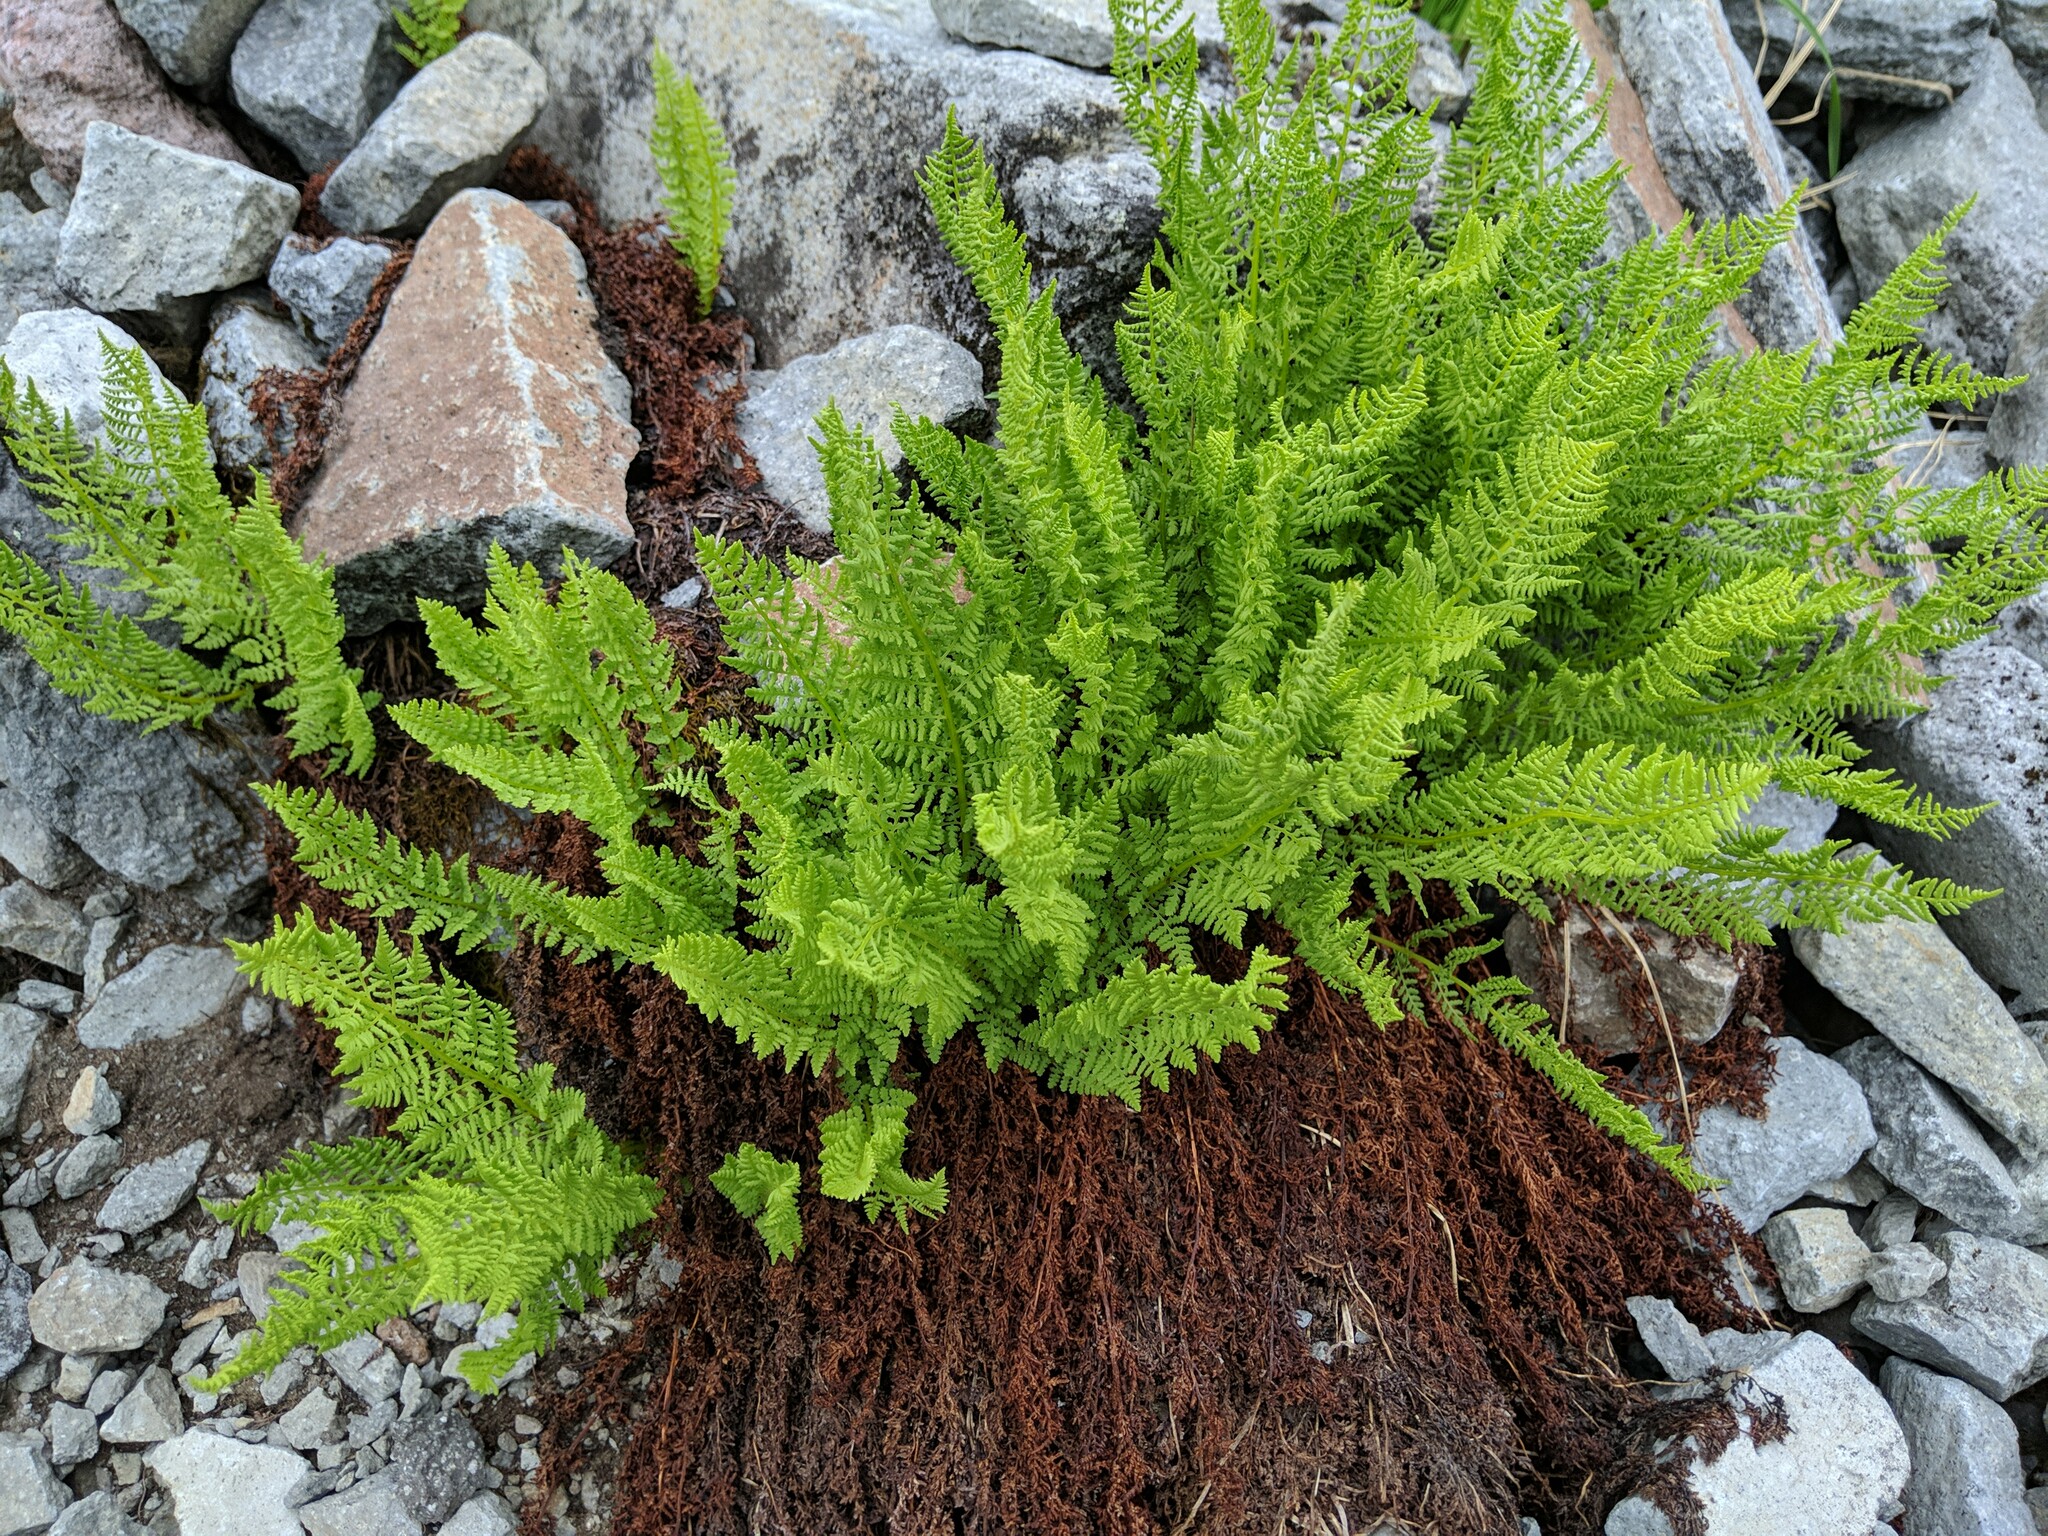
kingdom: Plantae
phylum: Tracheophyta
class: Polypodiopsida
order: Polypodiales
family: Athyriaceae
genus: Athyrium
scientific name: Athyrium americanum
